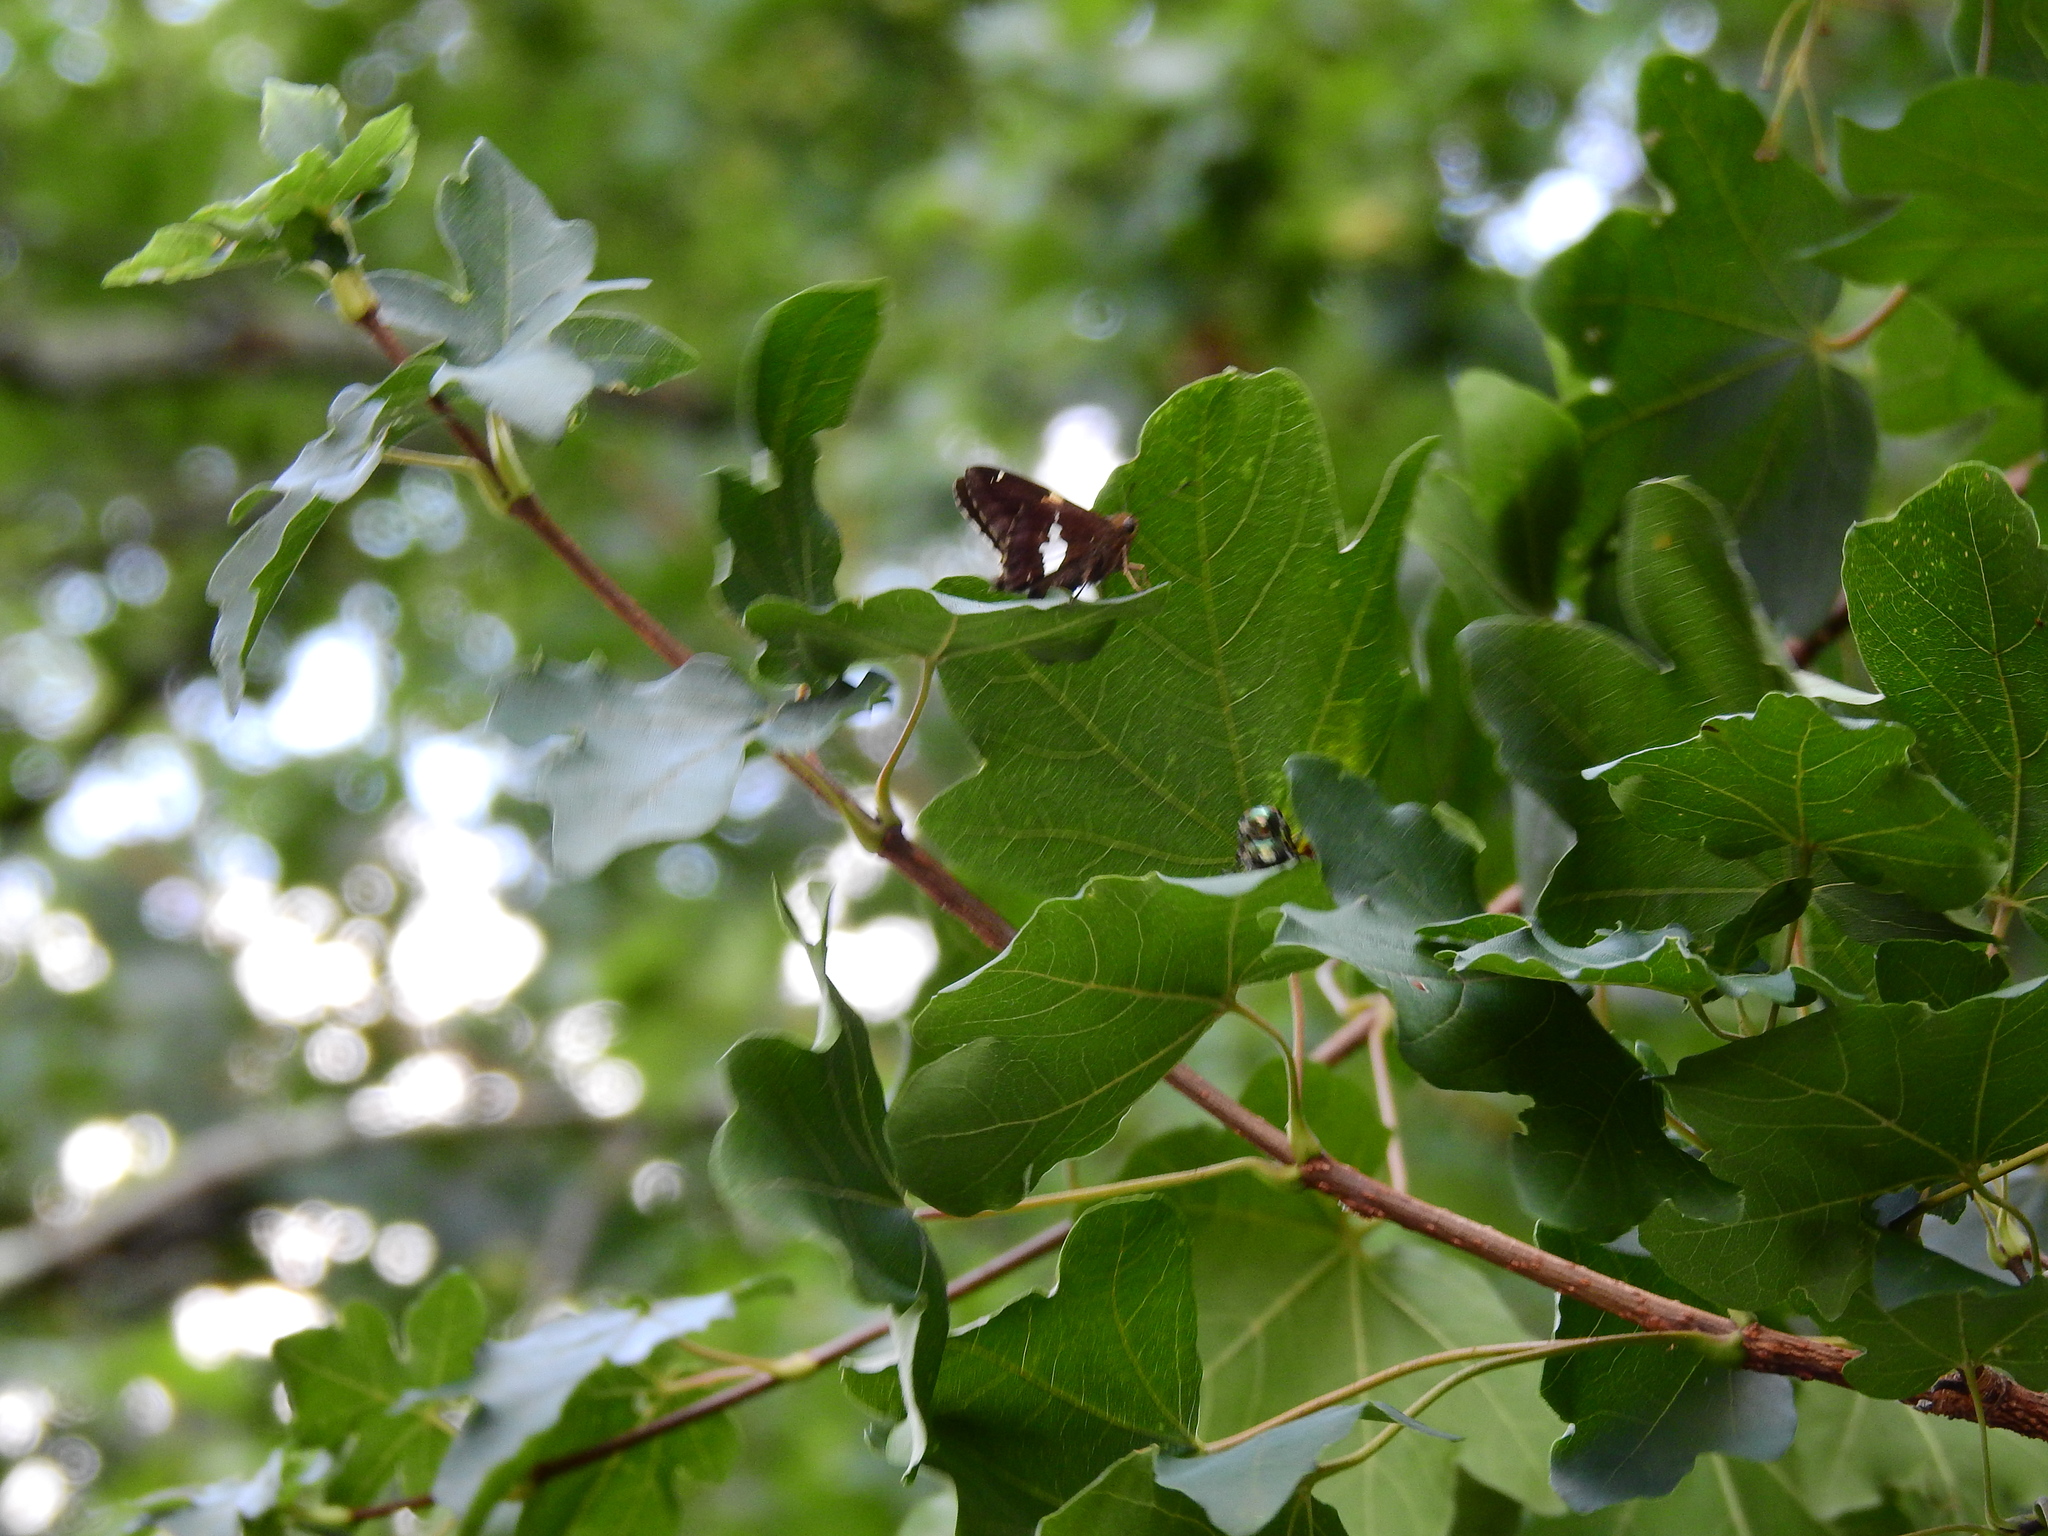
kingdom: Animalia
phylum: Arthropoda
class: Insecta
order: Lepidoptera
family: Hesperiidae
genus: Epargyreus
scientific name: Epargyreus clarus
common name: Silver-spotted skipper
